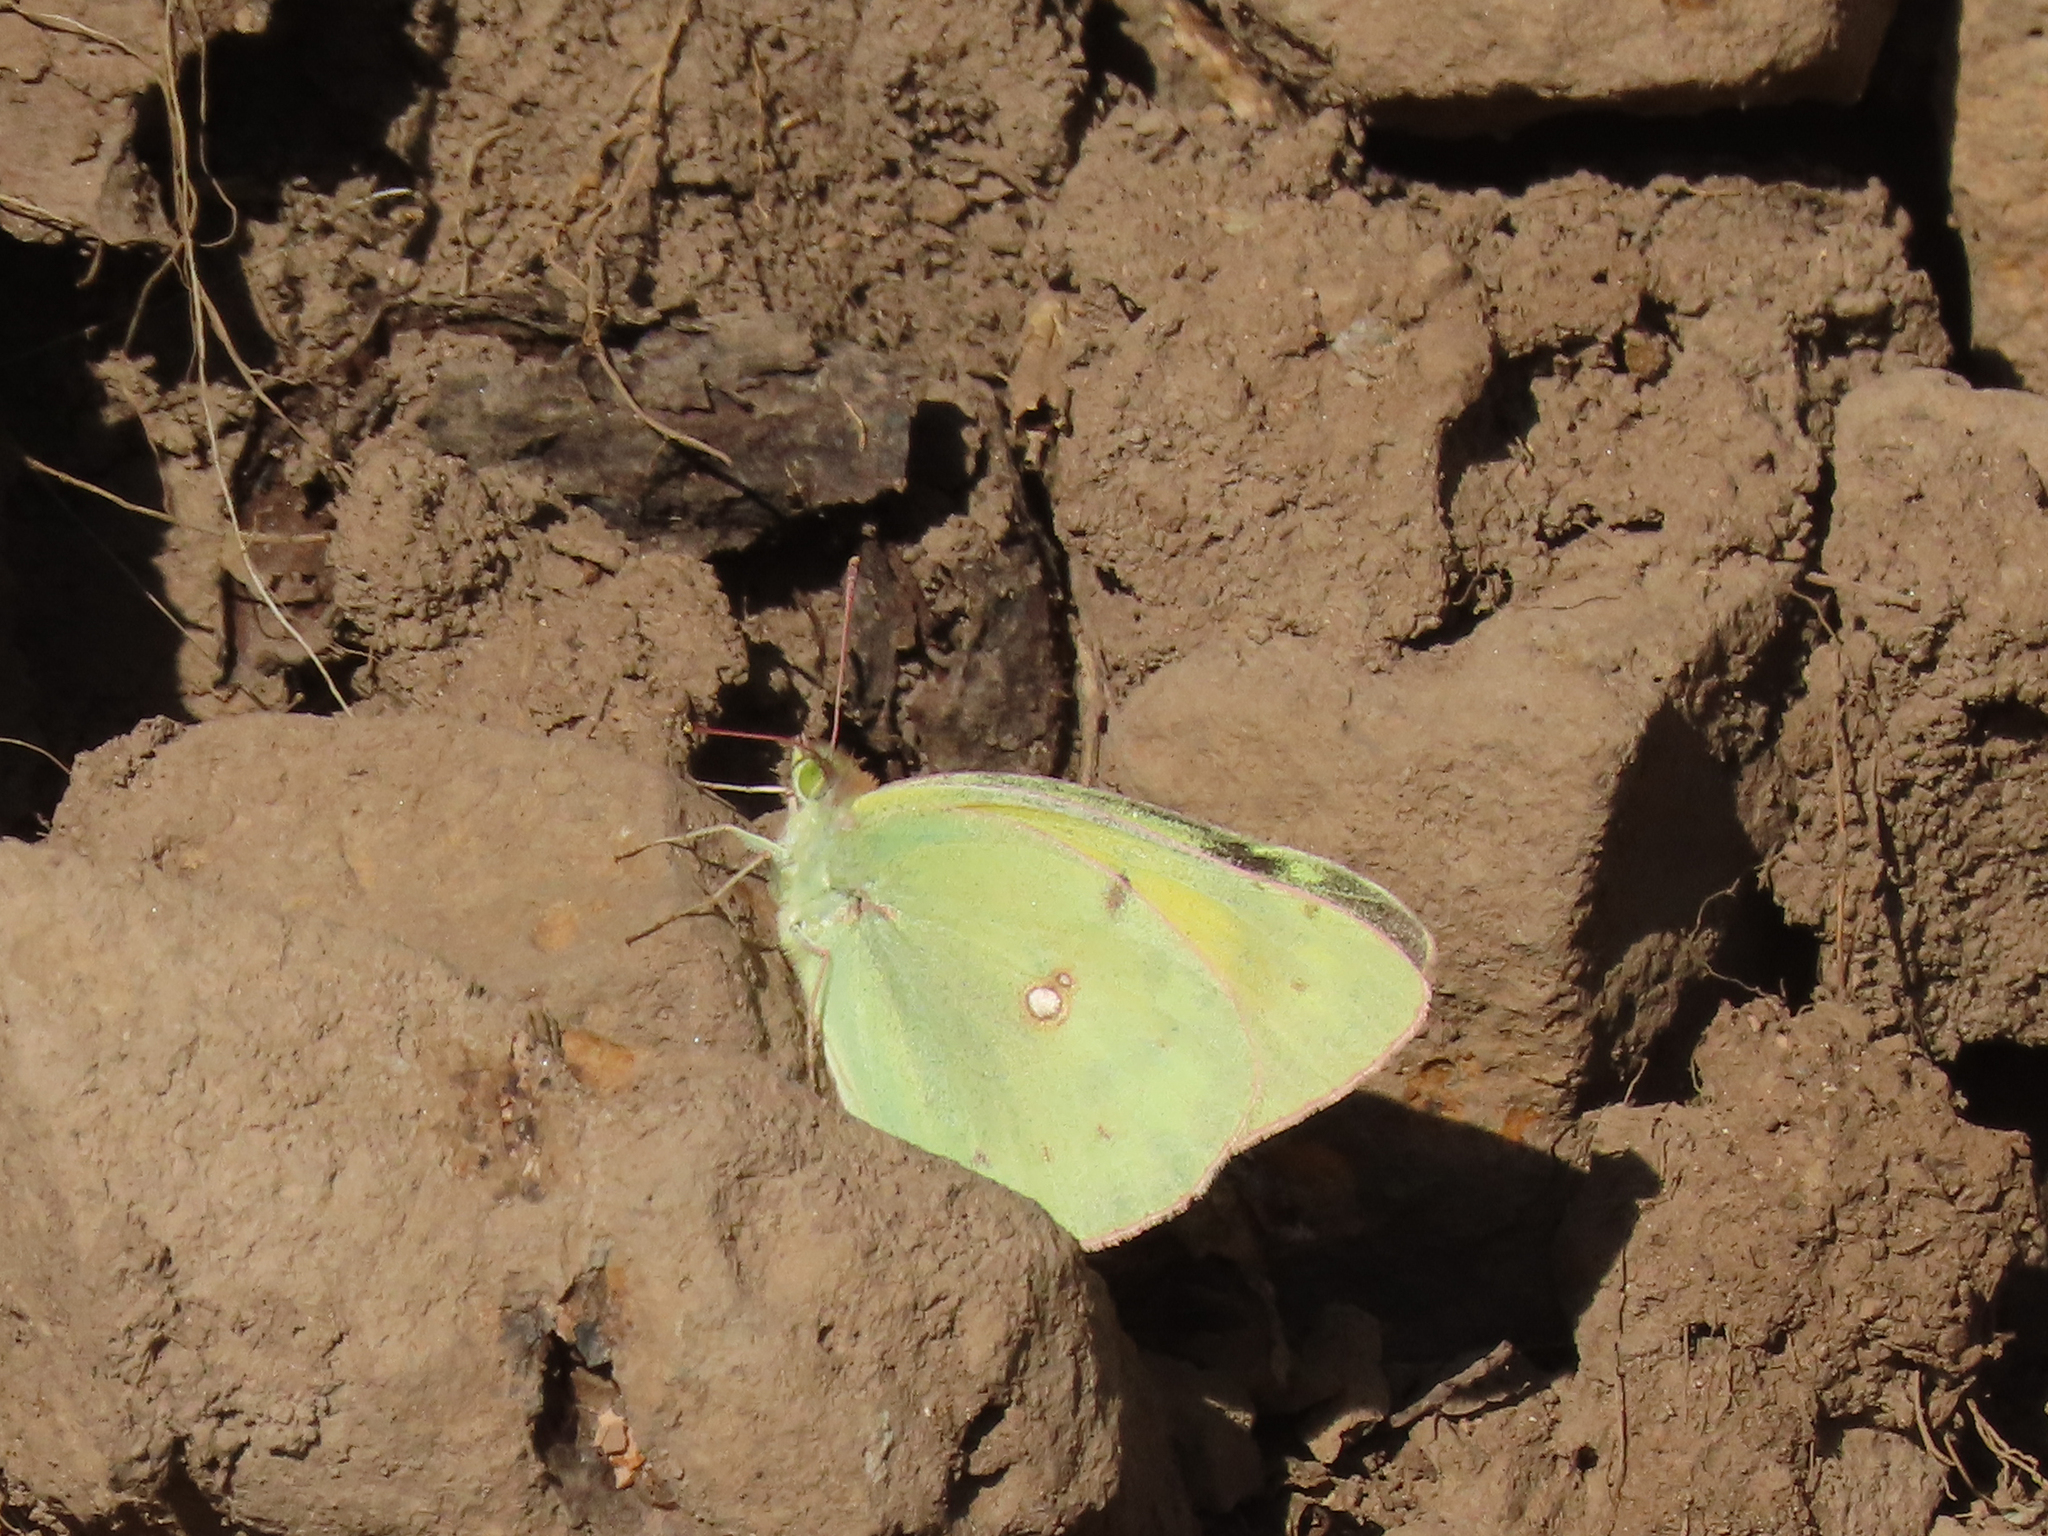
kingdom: Animalia
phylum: Arthropoda
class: Insecta
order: Lepidoptera
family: Pieridae
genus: Colias
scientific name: Colias eurytheme
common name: Alfalfa butterfly
